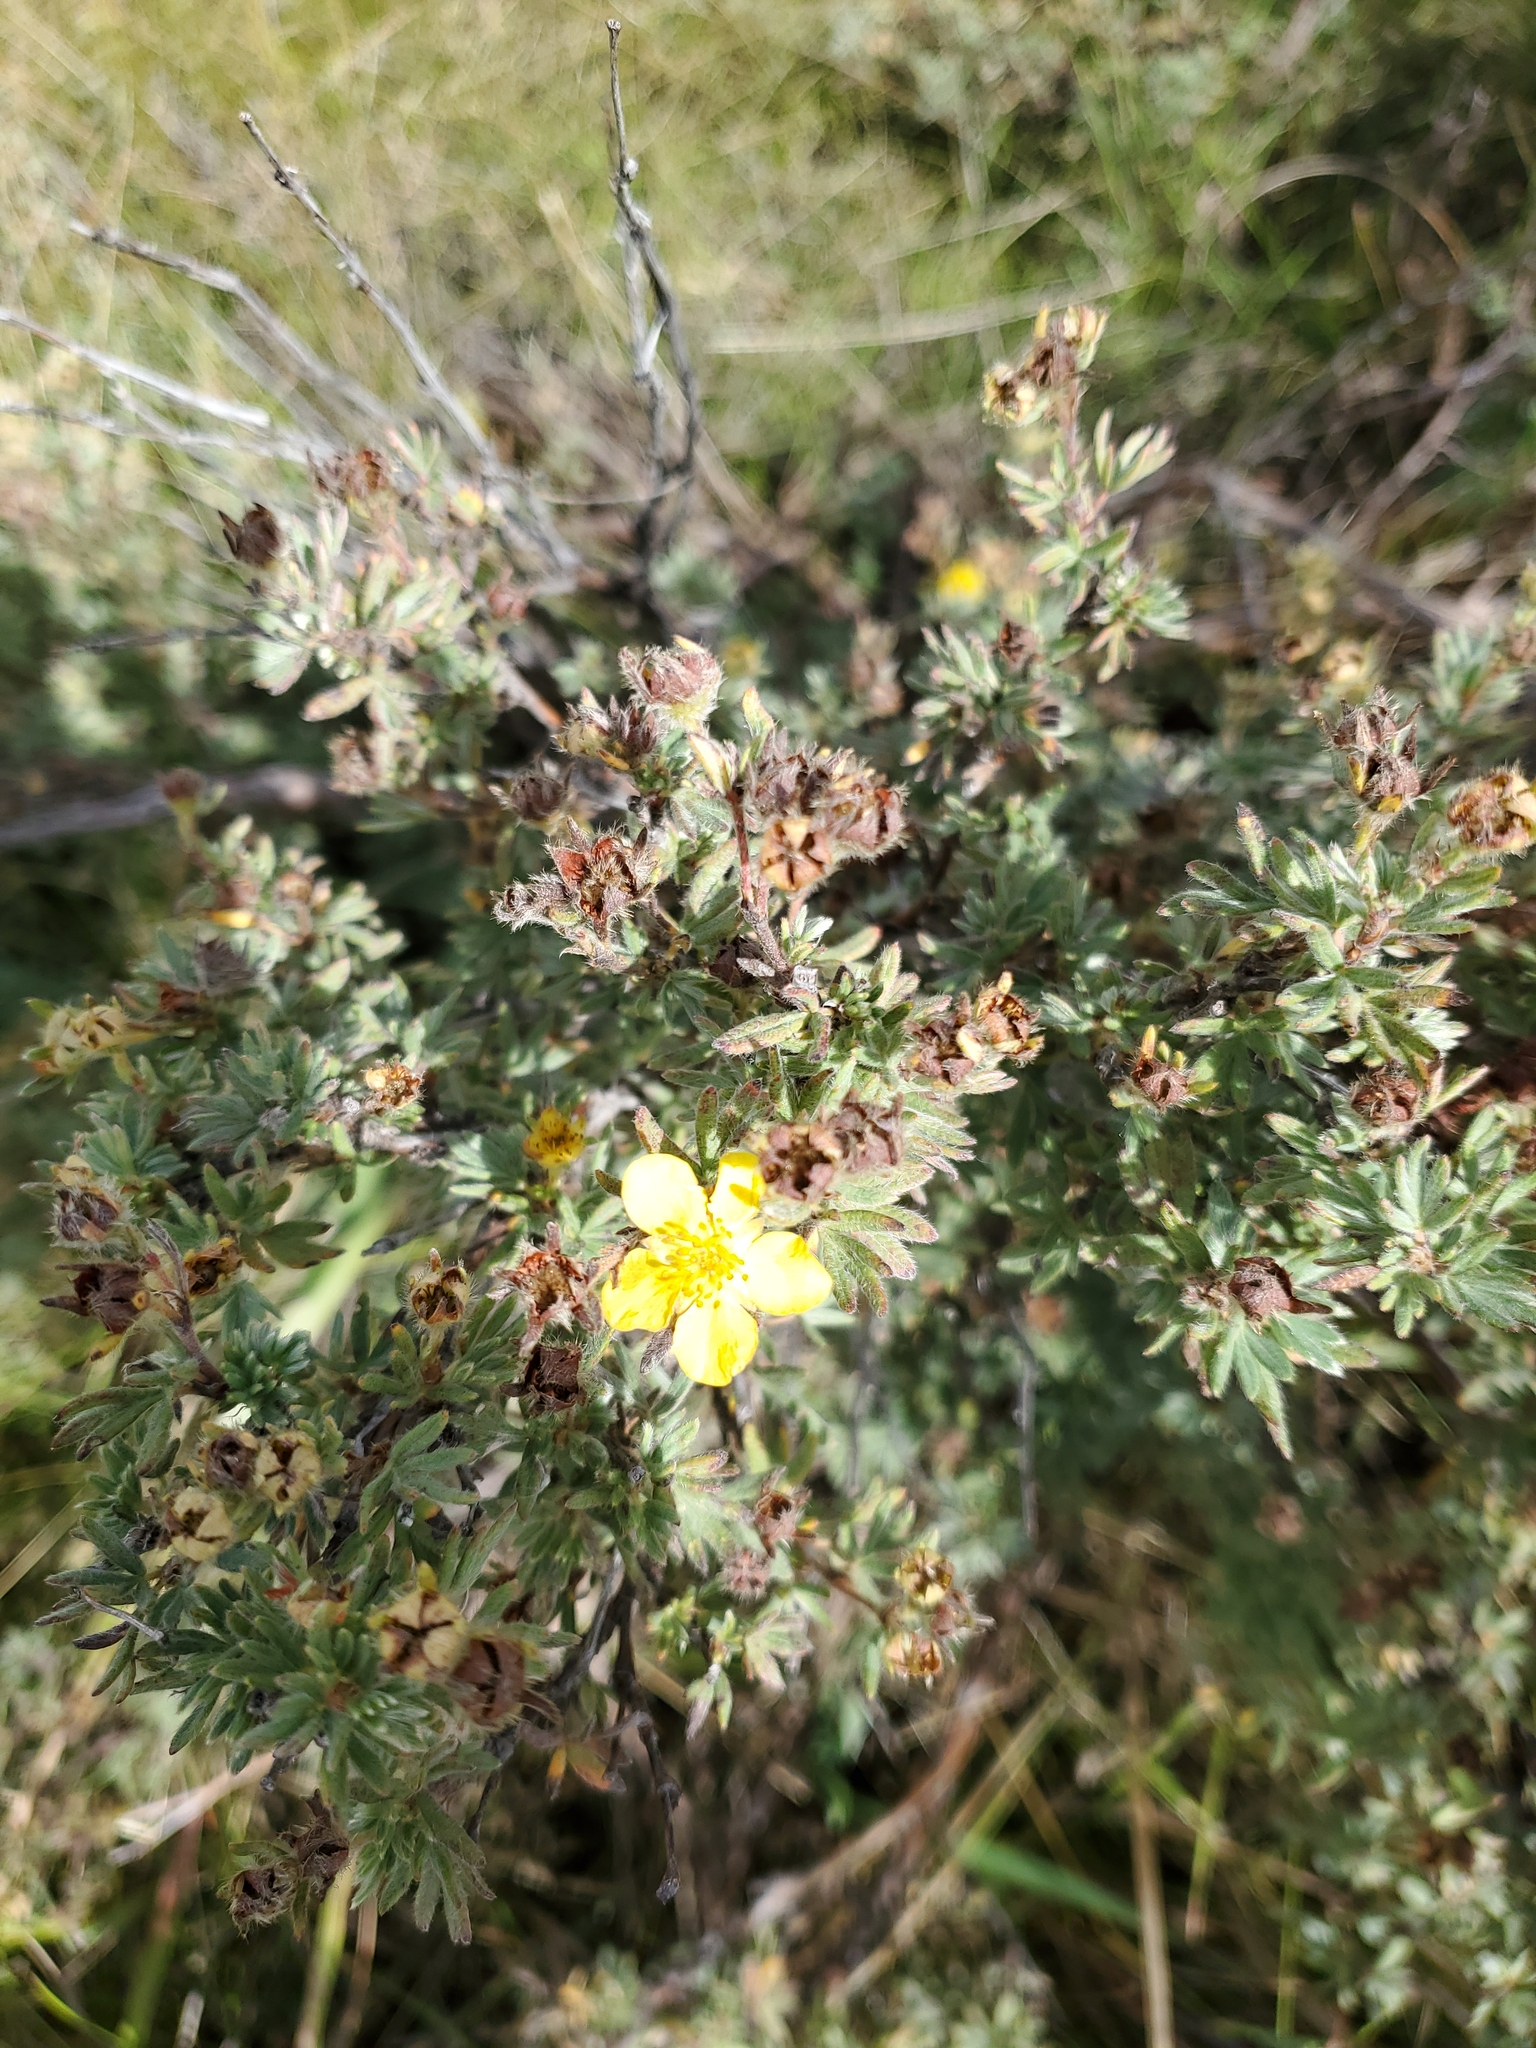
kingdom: Plantae
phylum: Tracheophyta
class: Magnoliopsida
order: Rosales
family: Rosaceae
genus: Dasiphora
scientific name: Dasiphora fruticosa
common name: Shrubby cinquefoil
